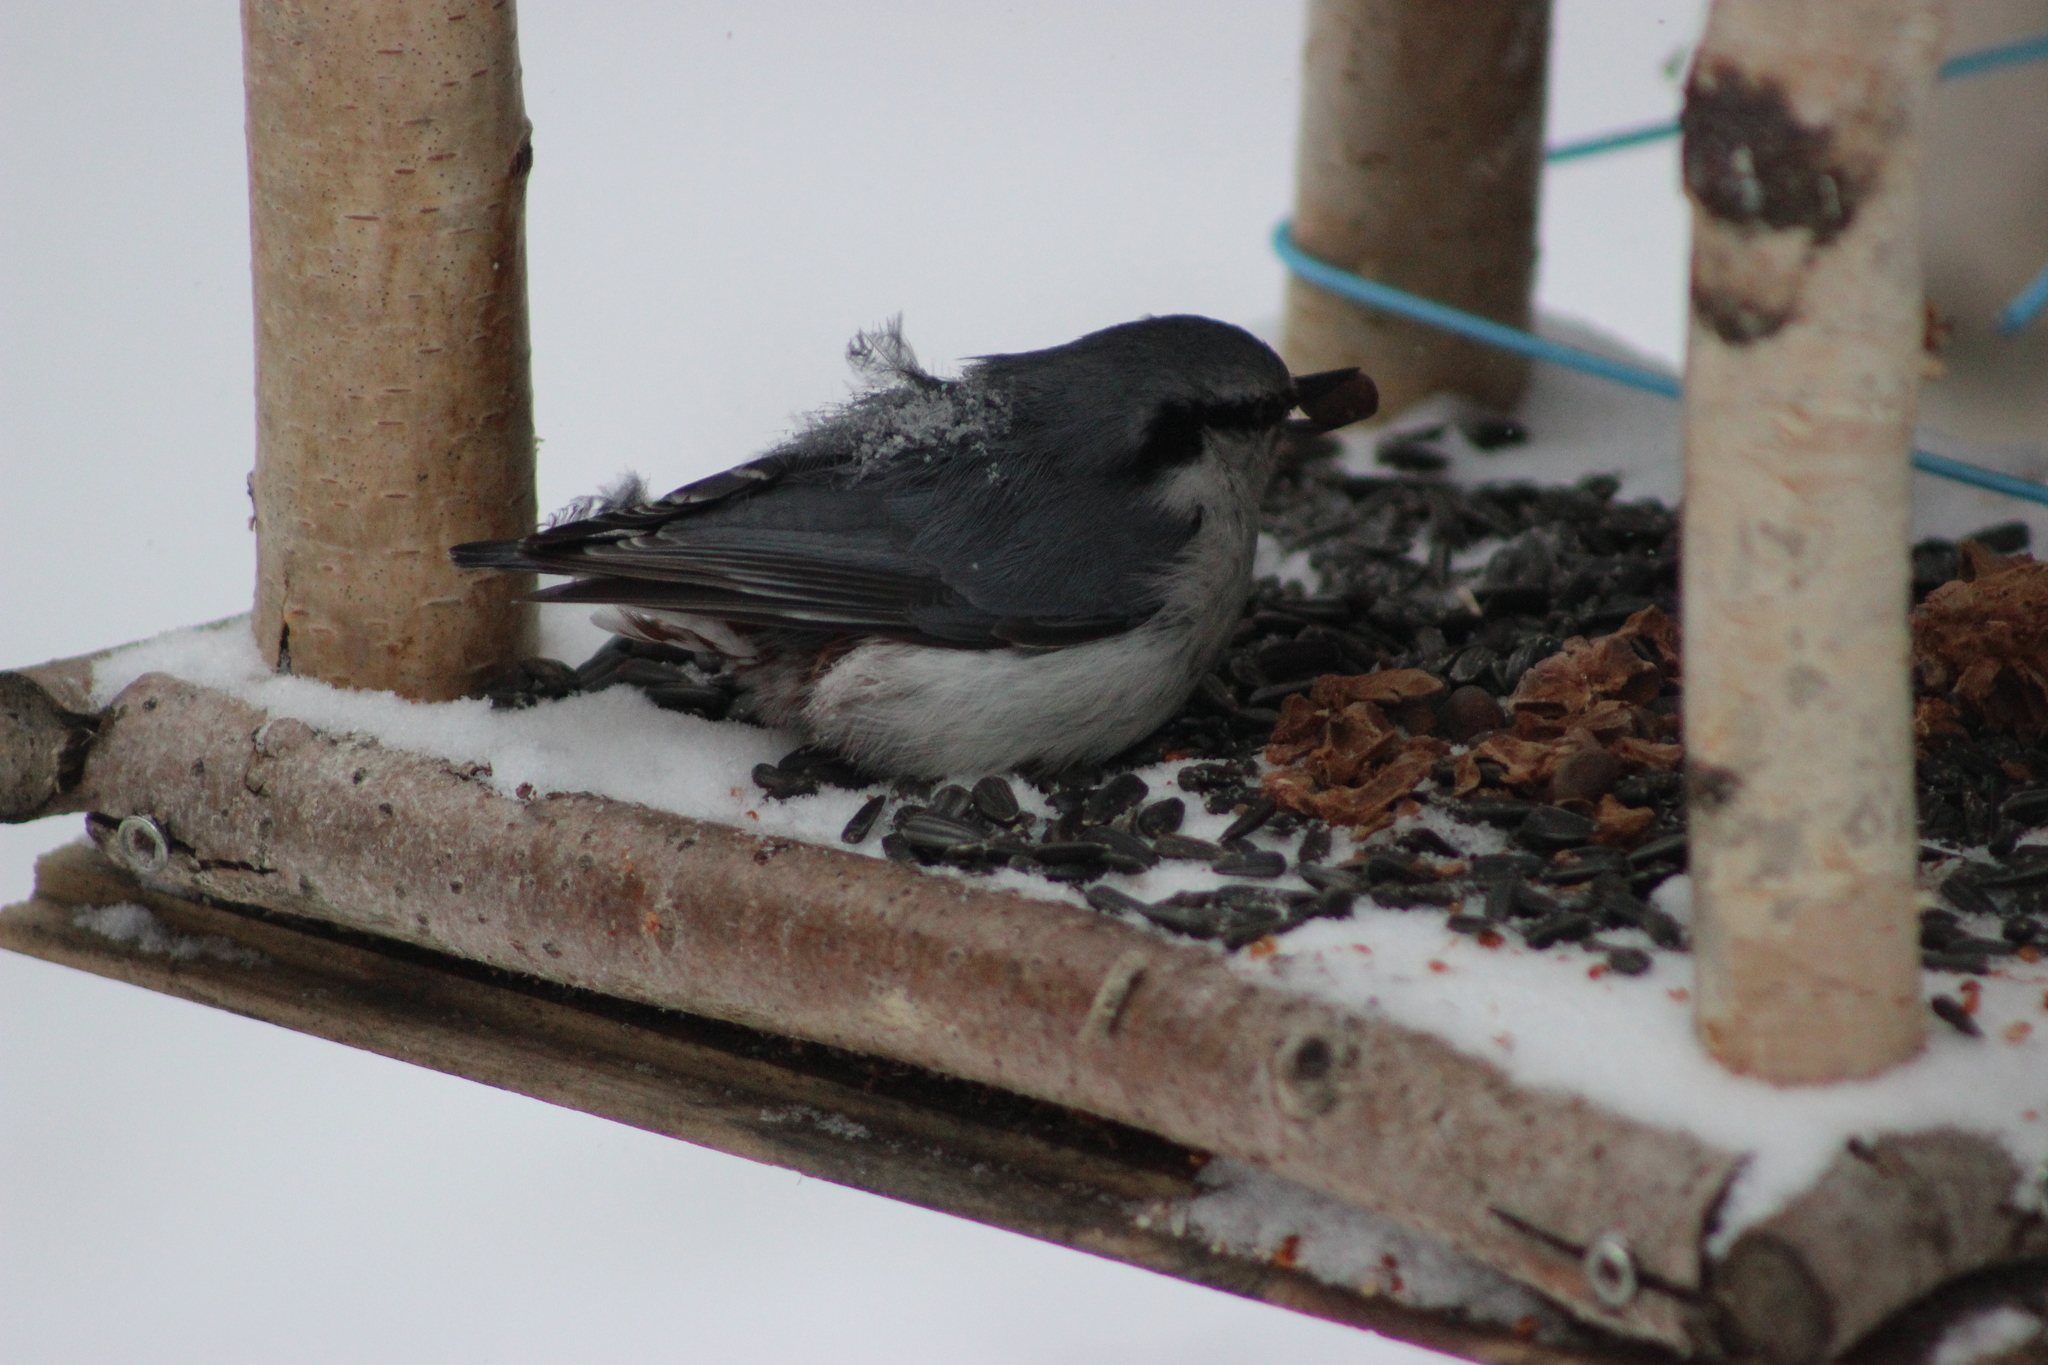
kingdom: Animalia
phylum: Chordata
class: Aves
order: Passeriformes
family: Sittidae
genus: Sitta
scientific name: Sitta europaea
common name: Eurasian nuthatch
